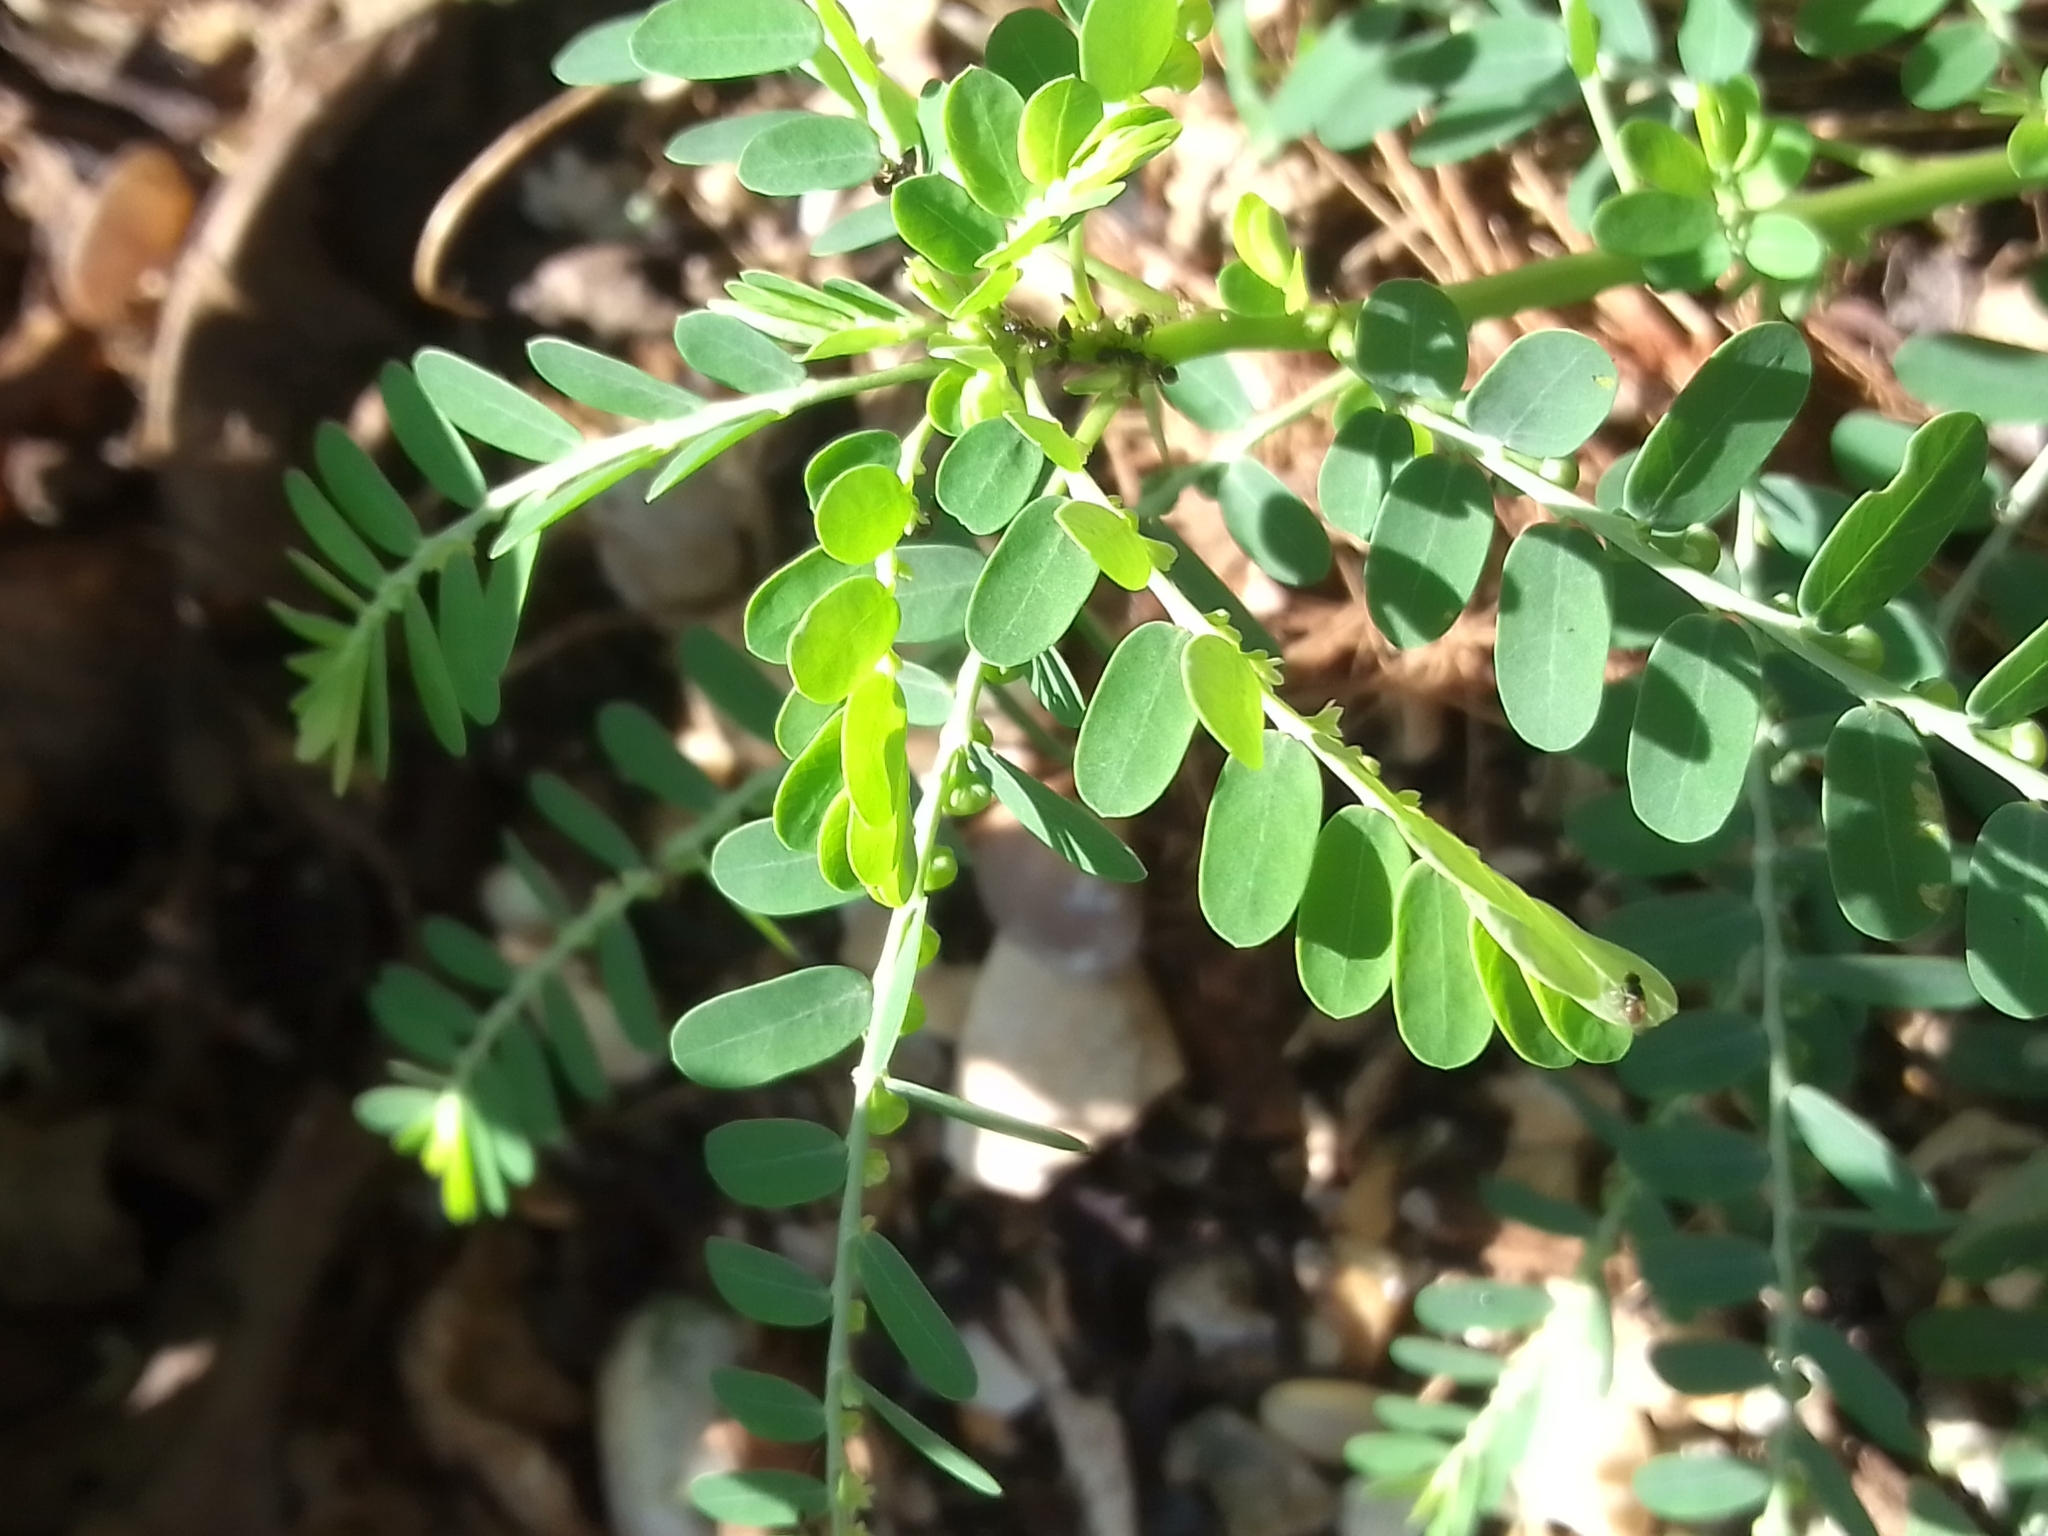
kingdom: Plantae
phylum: Tracheophyta
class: Magnoliopsida
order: Malpighiales
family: Phyllanthaceae
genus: Phyllanthus
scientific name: Phyllanthus amarus
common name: Carry me seed
